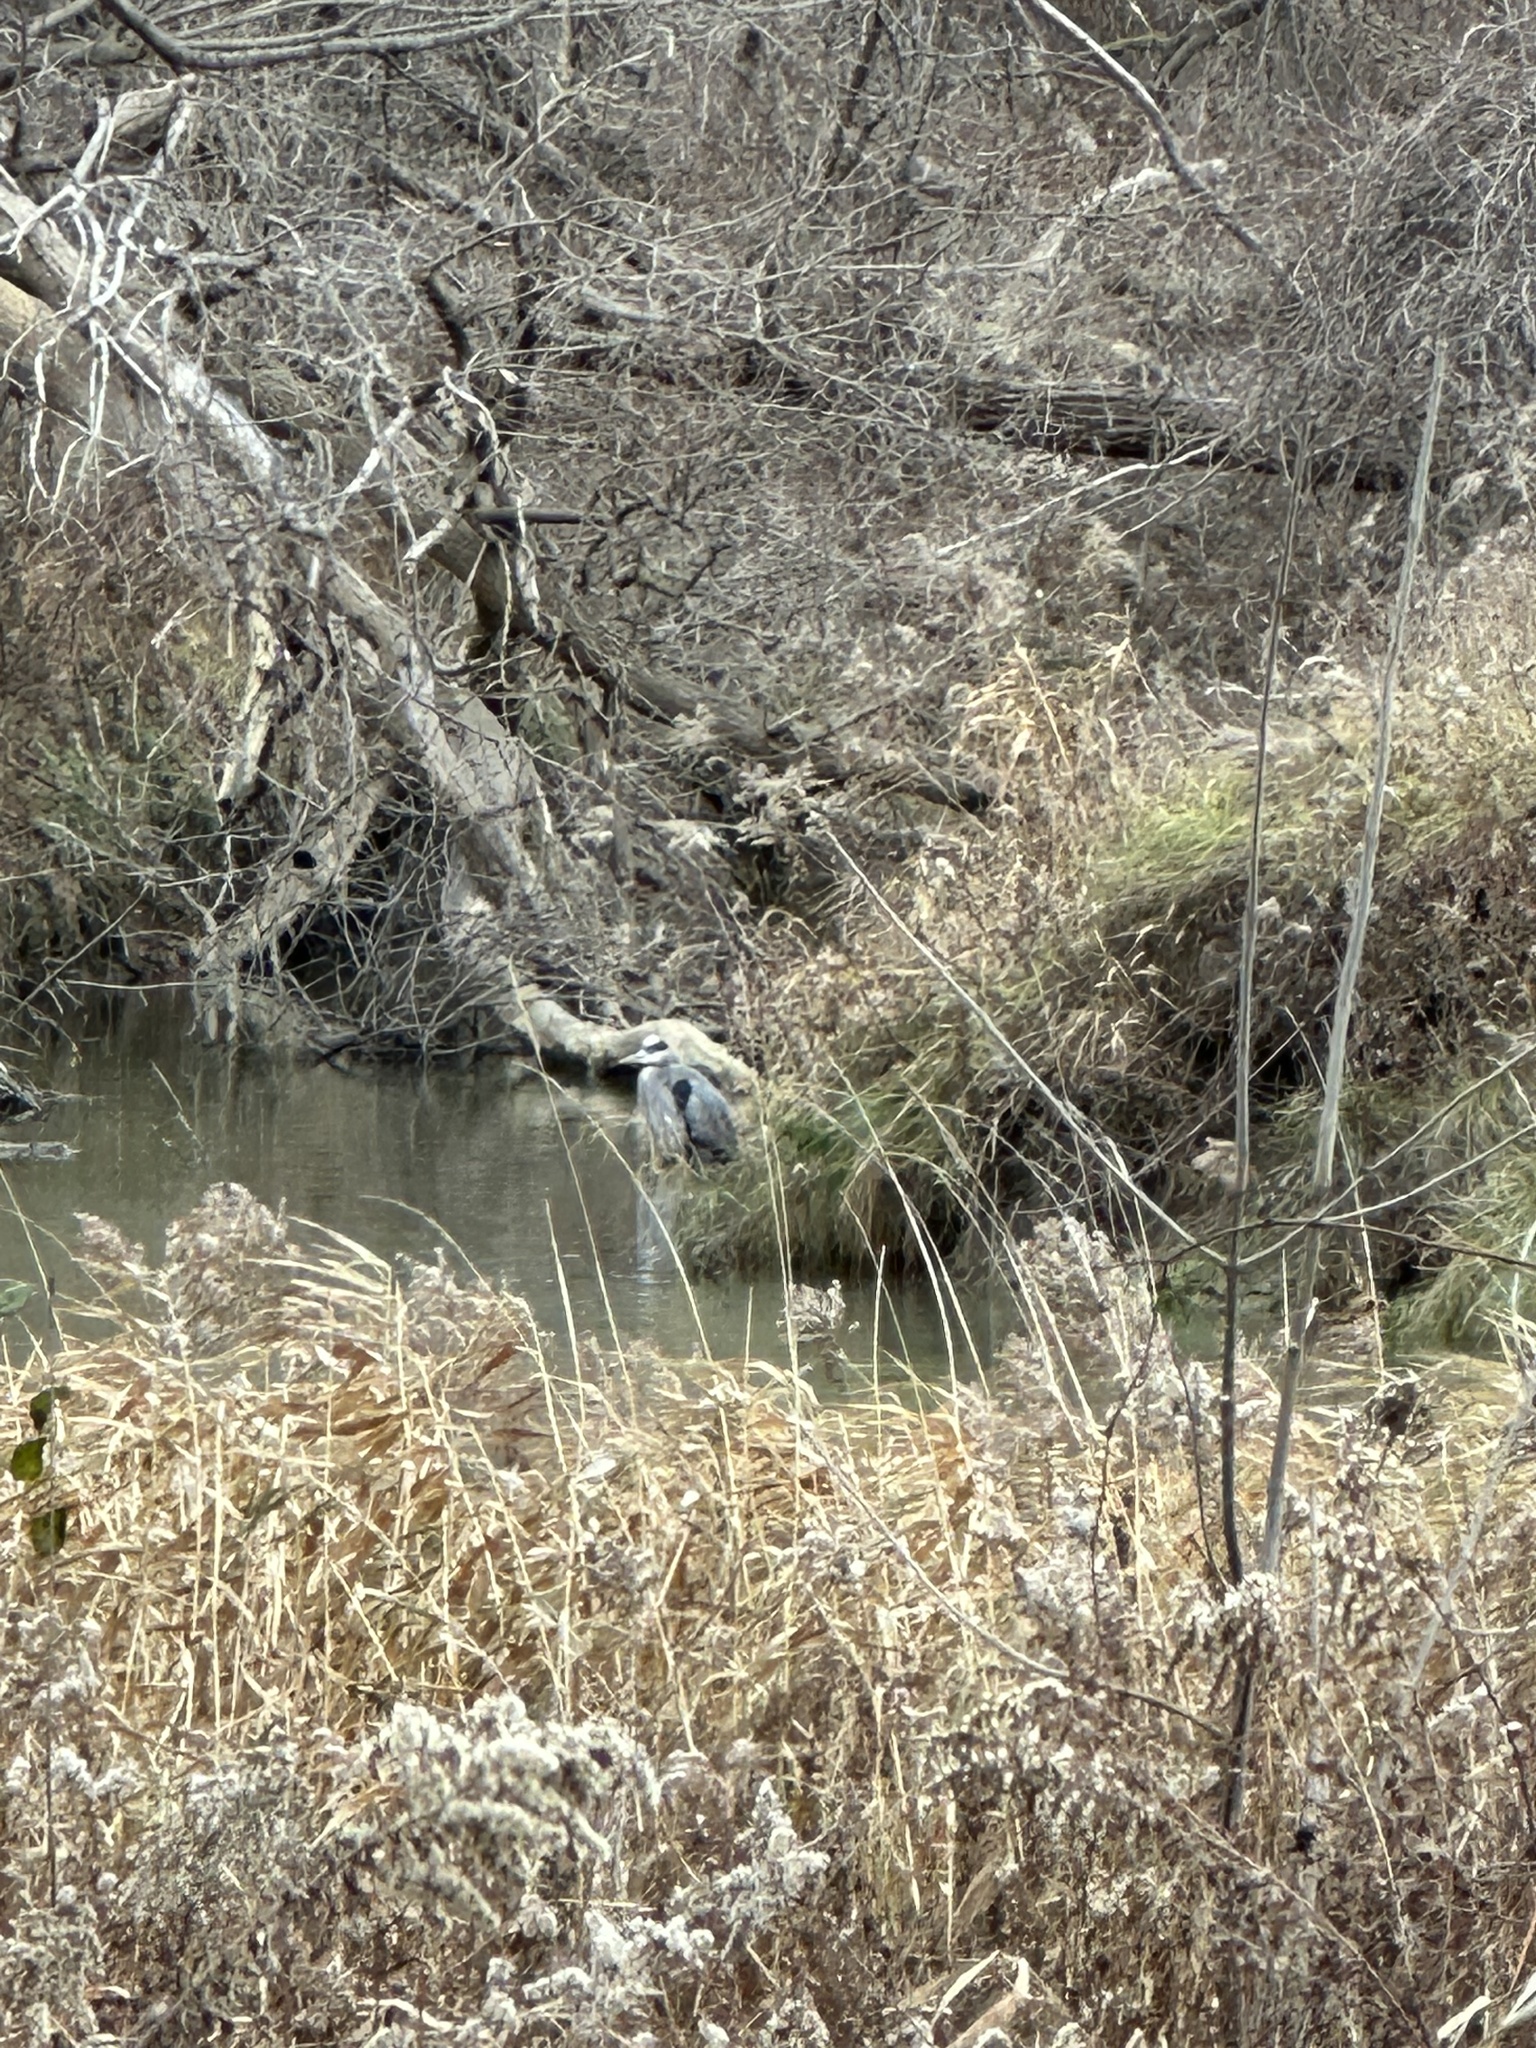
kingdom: Animalia
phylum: Chordata
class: Aves
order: Pelecaniformes
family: Ardeidae
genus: Ardea
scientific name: Ardea herodias
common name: Great blue heron
